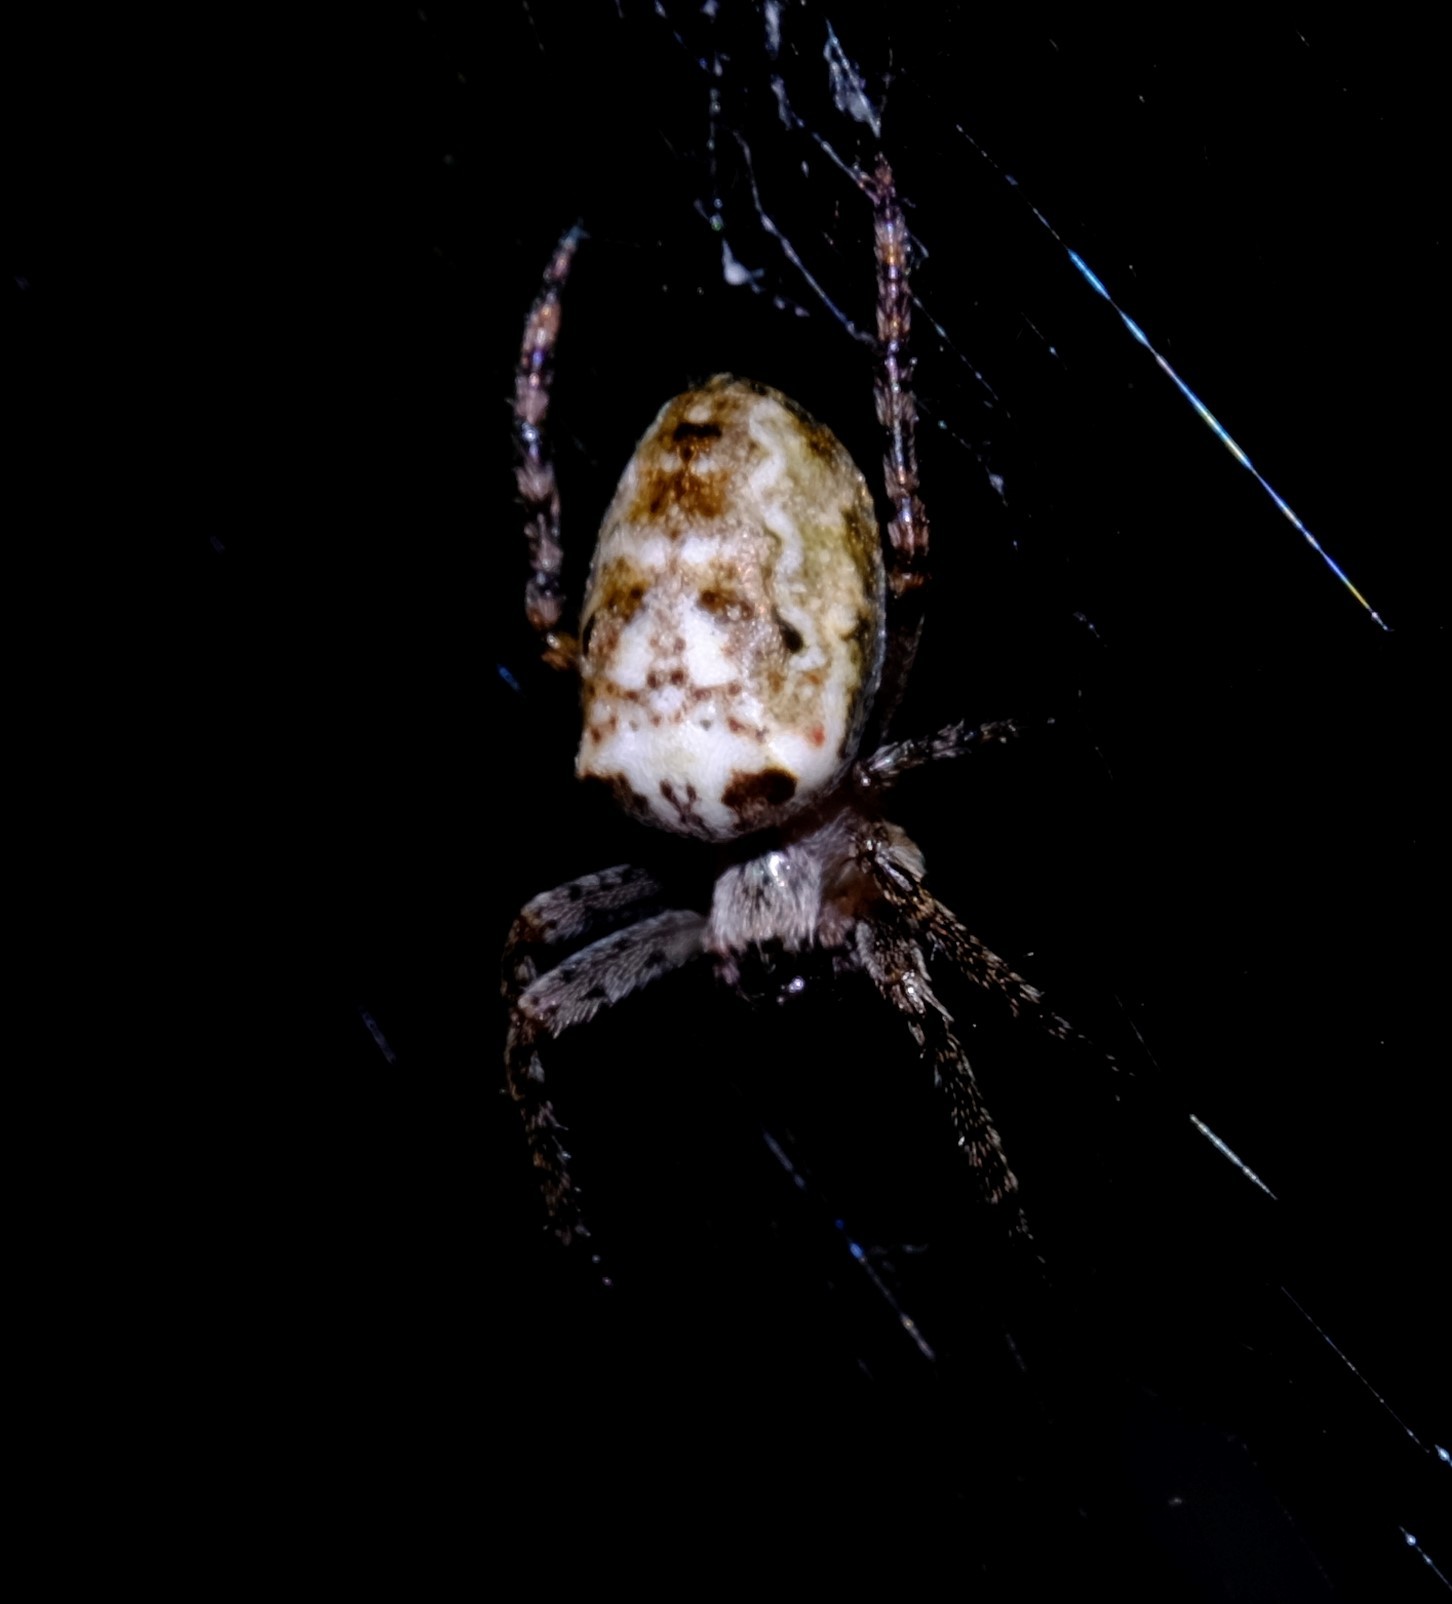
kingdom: Animalia
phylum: Arthropoda
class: Arachnida
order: Araneae
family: Araneidae
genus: Plebs
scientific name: Plebs eburnus
